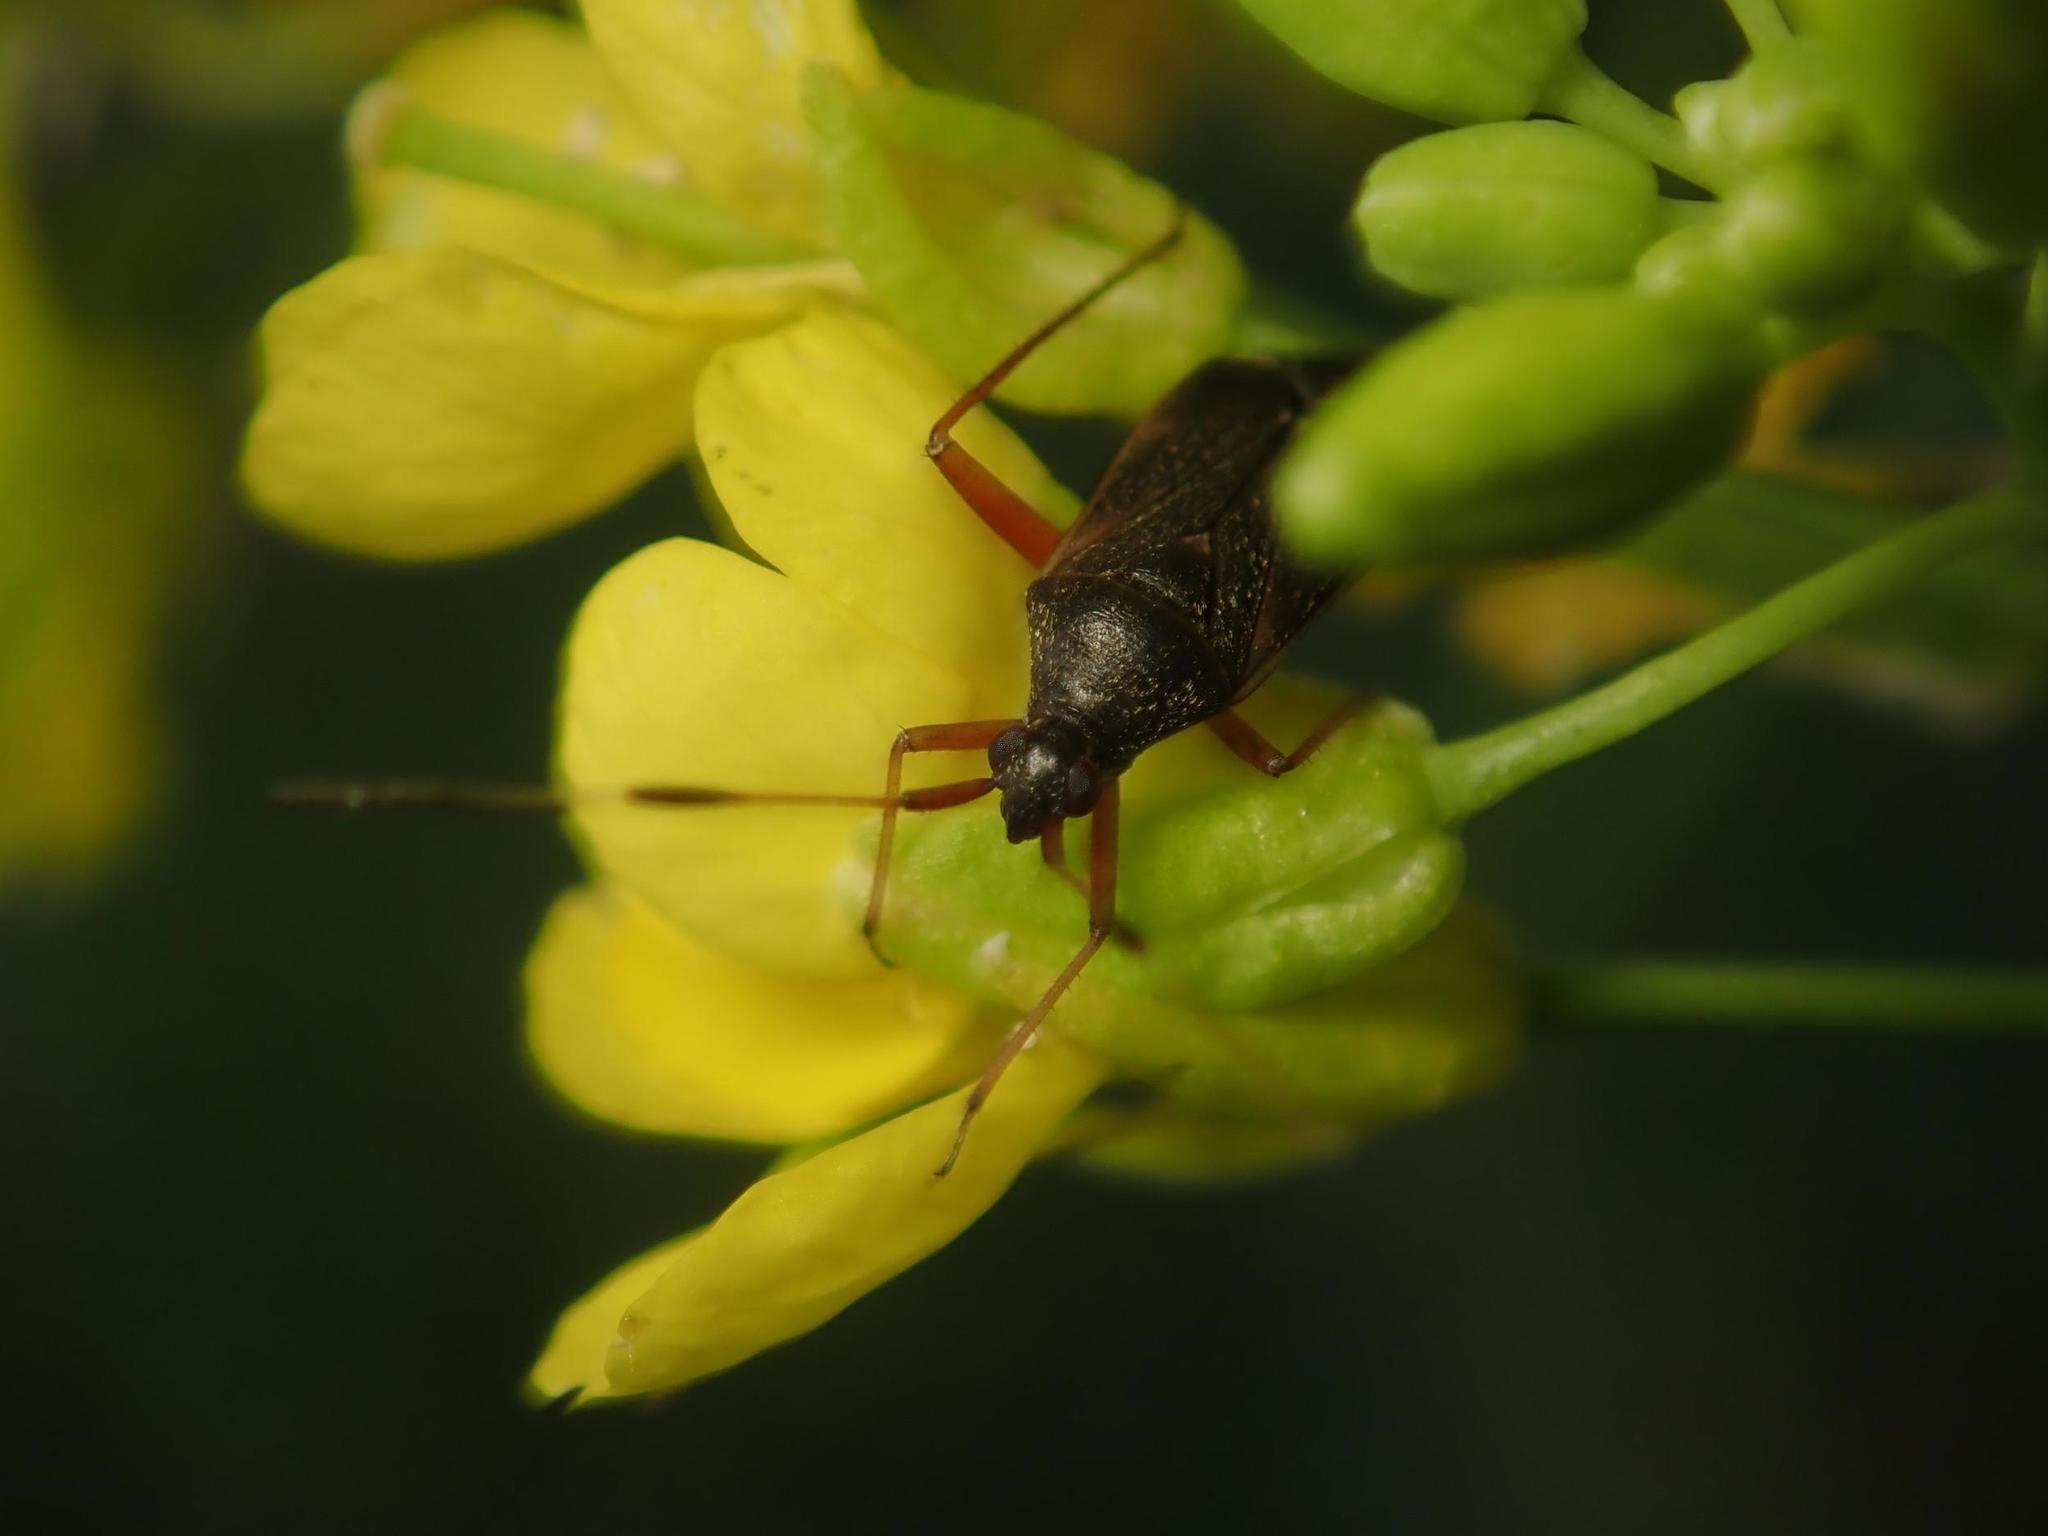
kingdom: Animalia
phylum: Arthropoda
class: Insecta
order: Hemiptera
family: Miridae
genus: Closterotomus
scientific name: Closterotomus biclavatus
